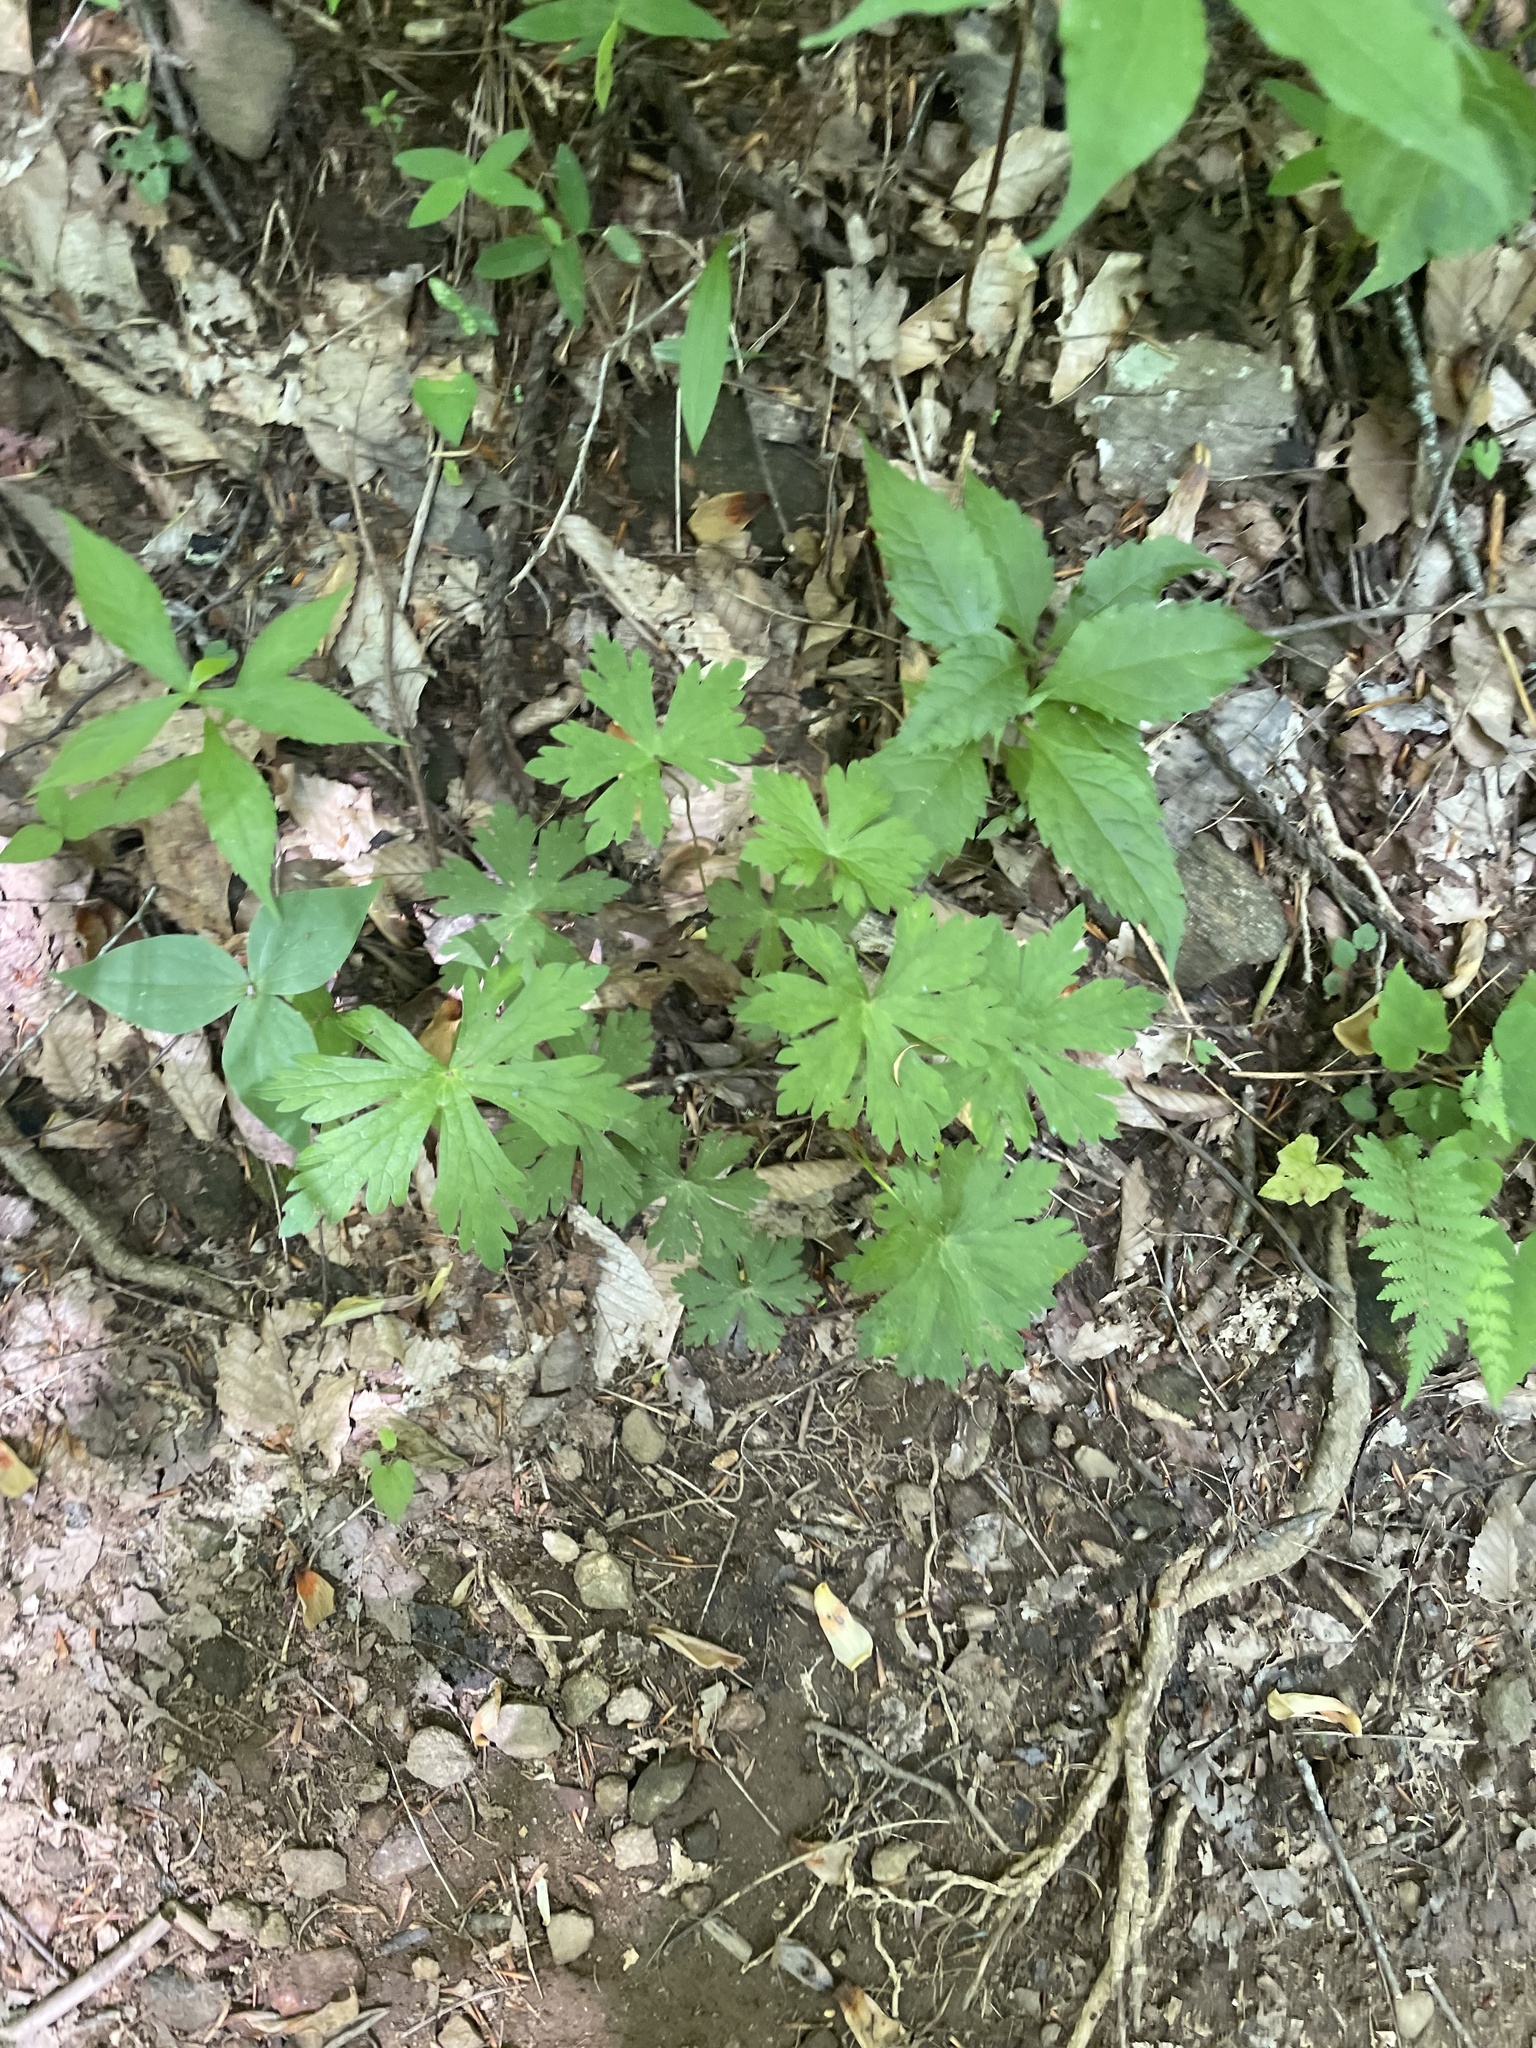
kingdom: Plantae
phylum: Tracheophyta
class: Magnoliopsida
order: Geraniales
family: Geraniaceae
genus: Geranium
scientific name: Geranium maculatum
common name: Spotted geranium
